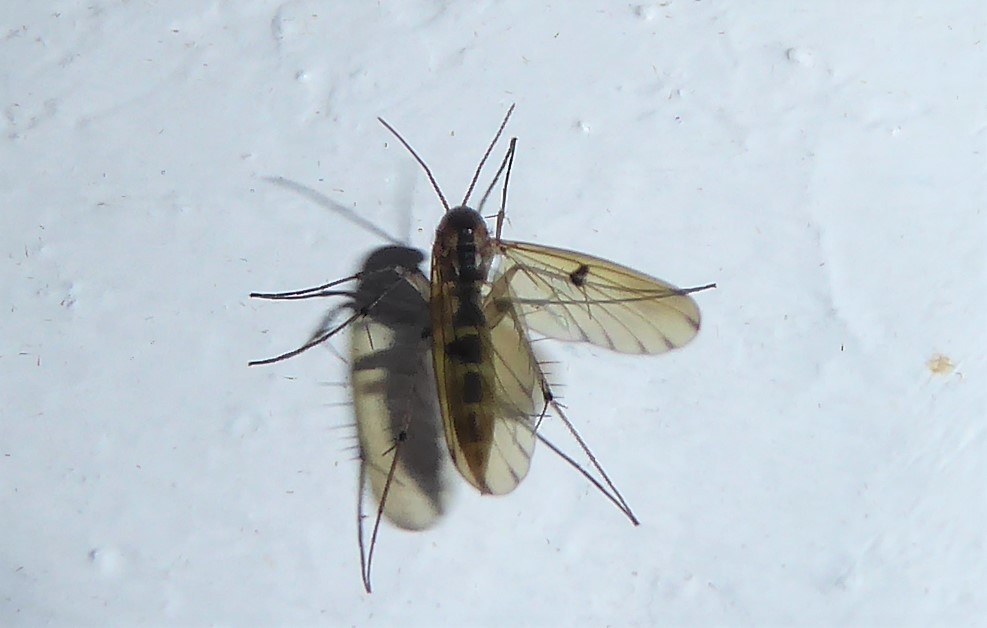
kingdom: Animalia
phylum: Arthropoda
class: Insecta
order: Diptera
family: Mycetophilidae
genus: Mycetophila
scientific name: Mycetophila marginepunctata
